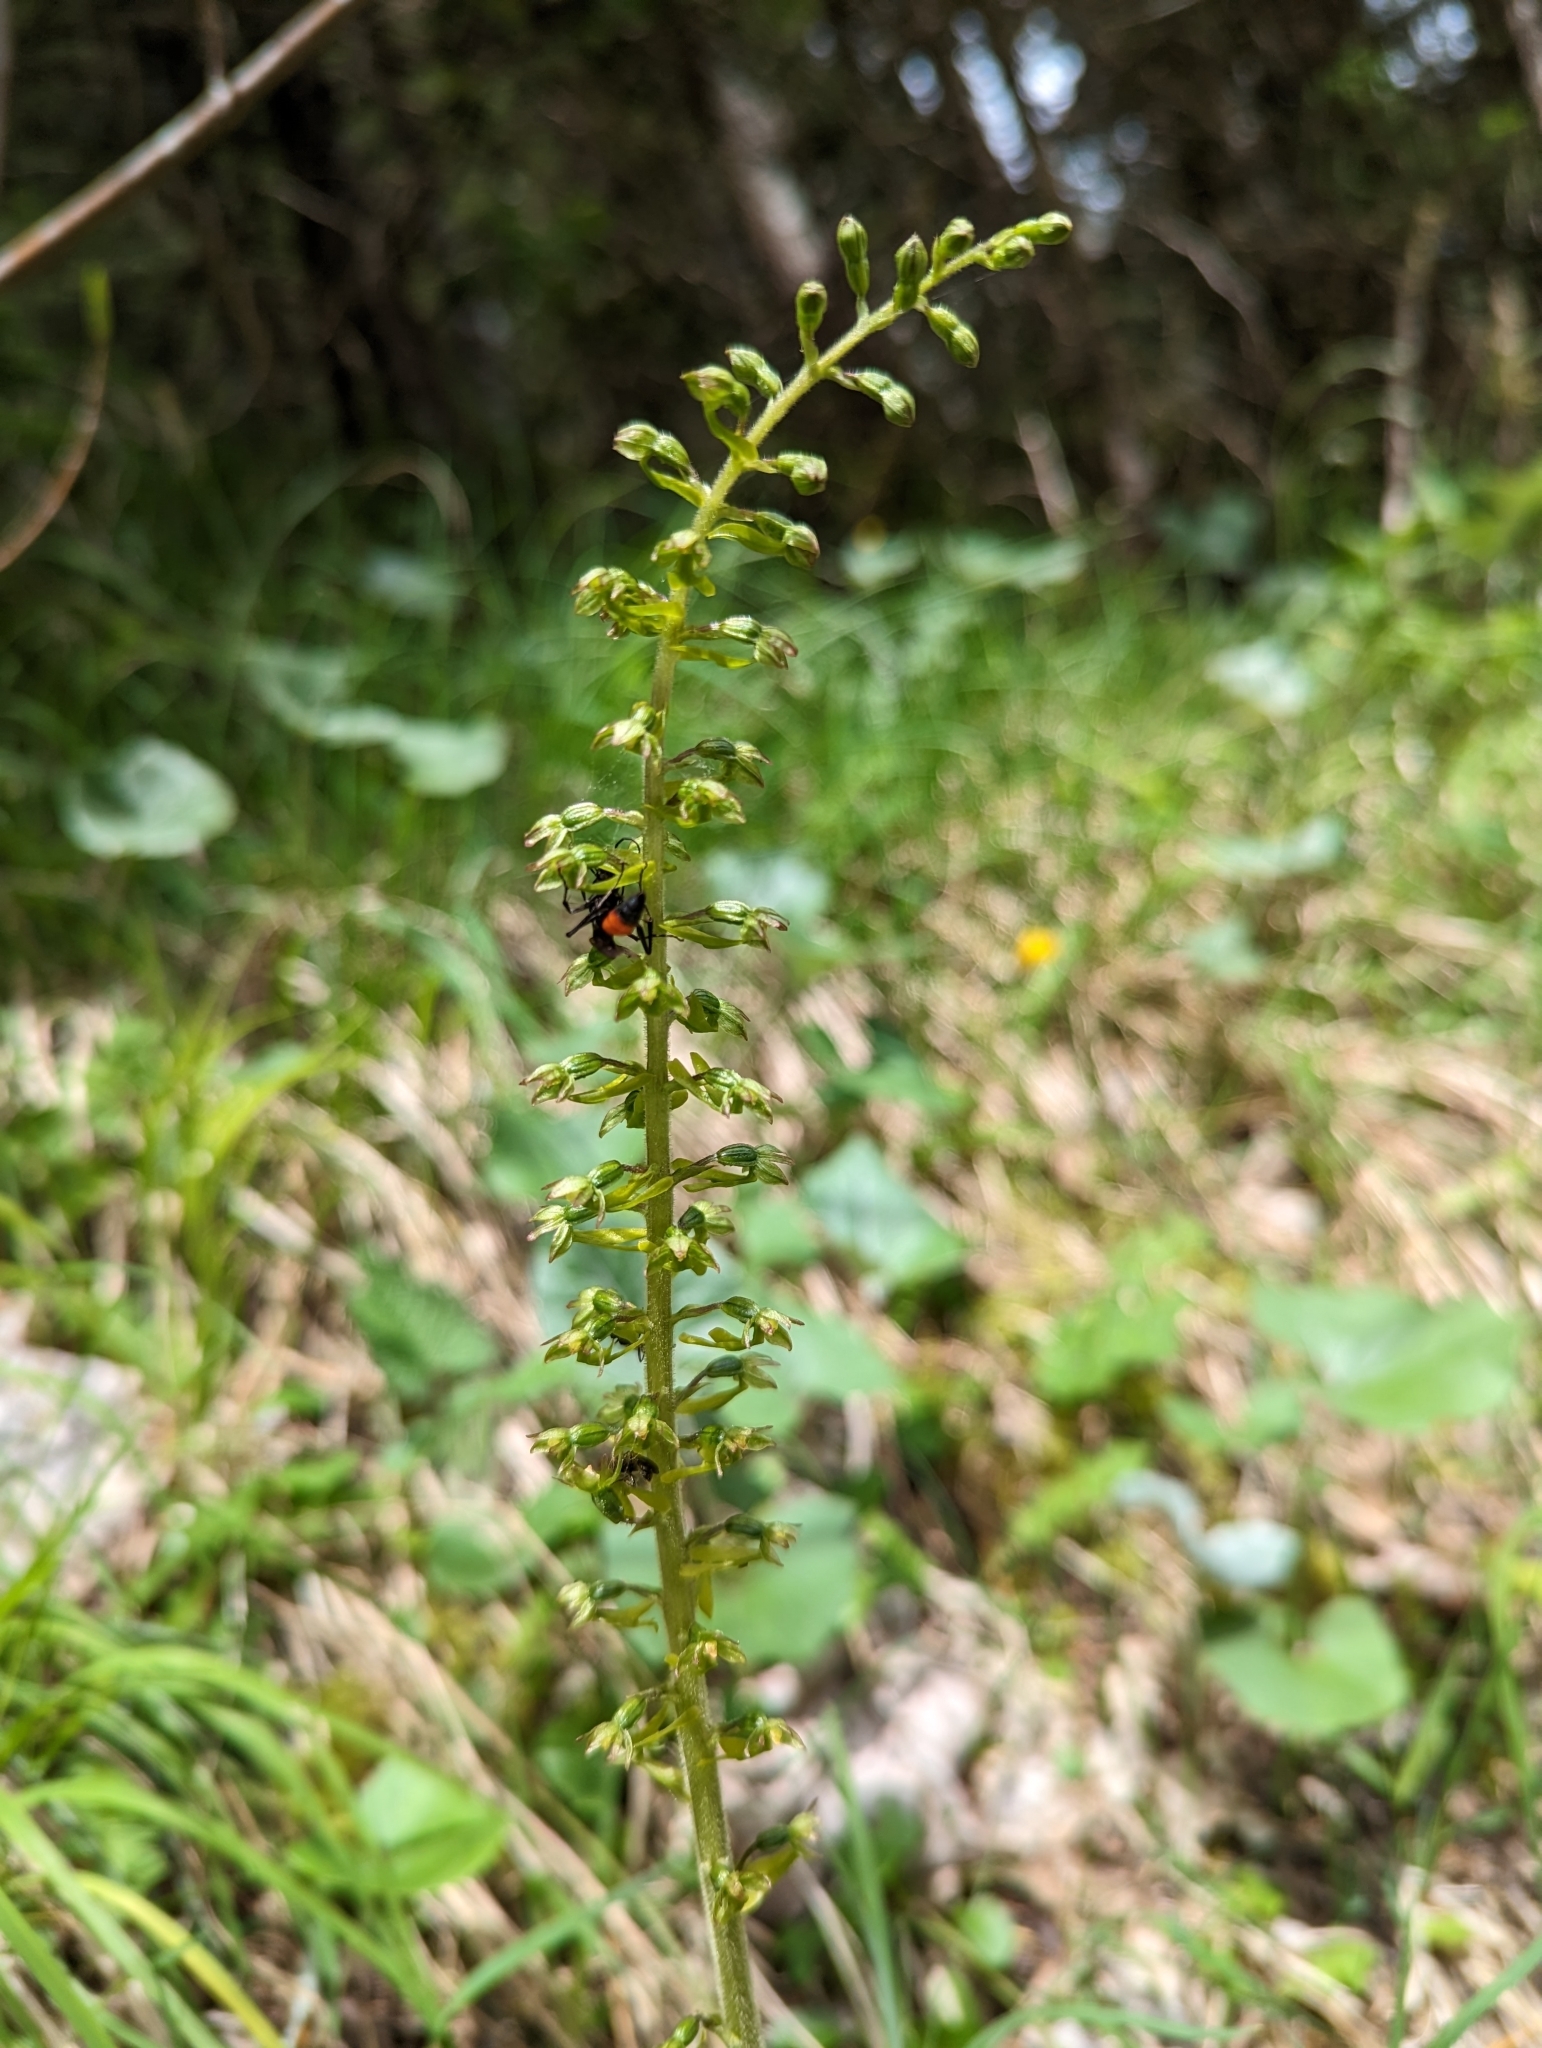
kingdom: Plantae
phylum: Tracheophyta
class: Liliopsida
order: Asparagales
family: Orchidaceae
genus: Neottia
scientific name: Neottia ovata
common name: Common twayblade
